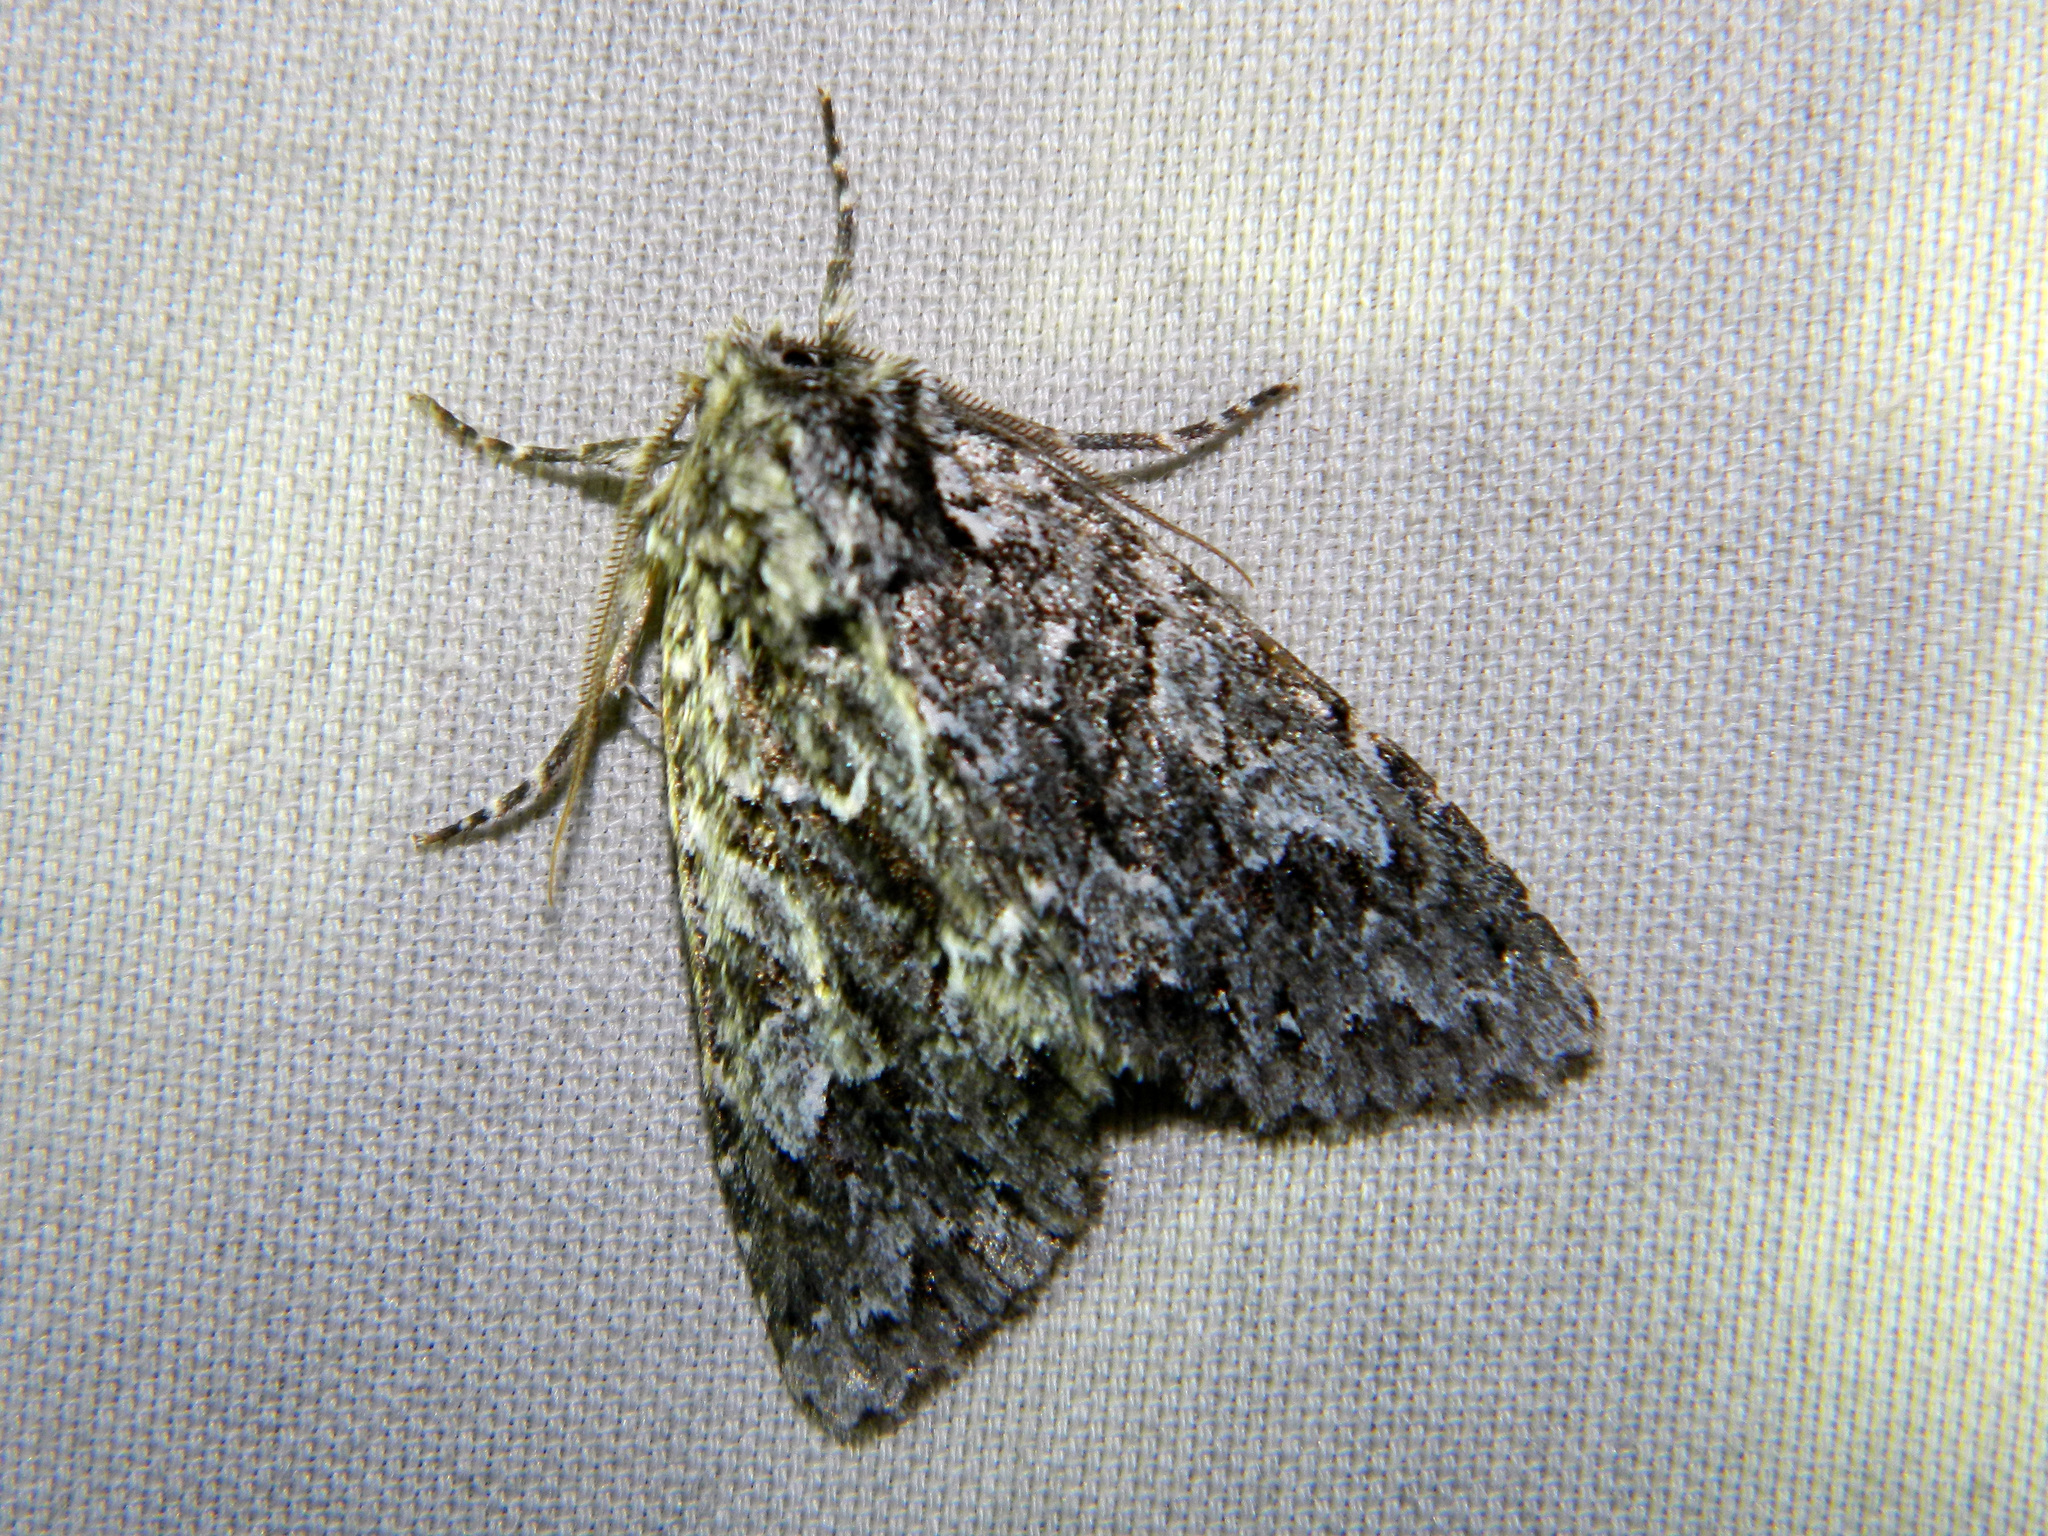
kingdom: Animalia
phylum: Arthropoda
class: Insecta
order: Lepidoptera
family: Noctuidae
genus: Platypolia
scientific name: Platypolia anceps
